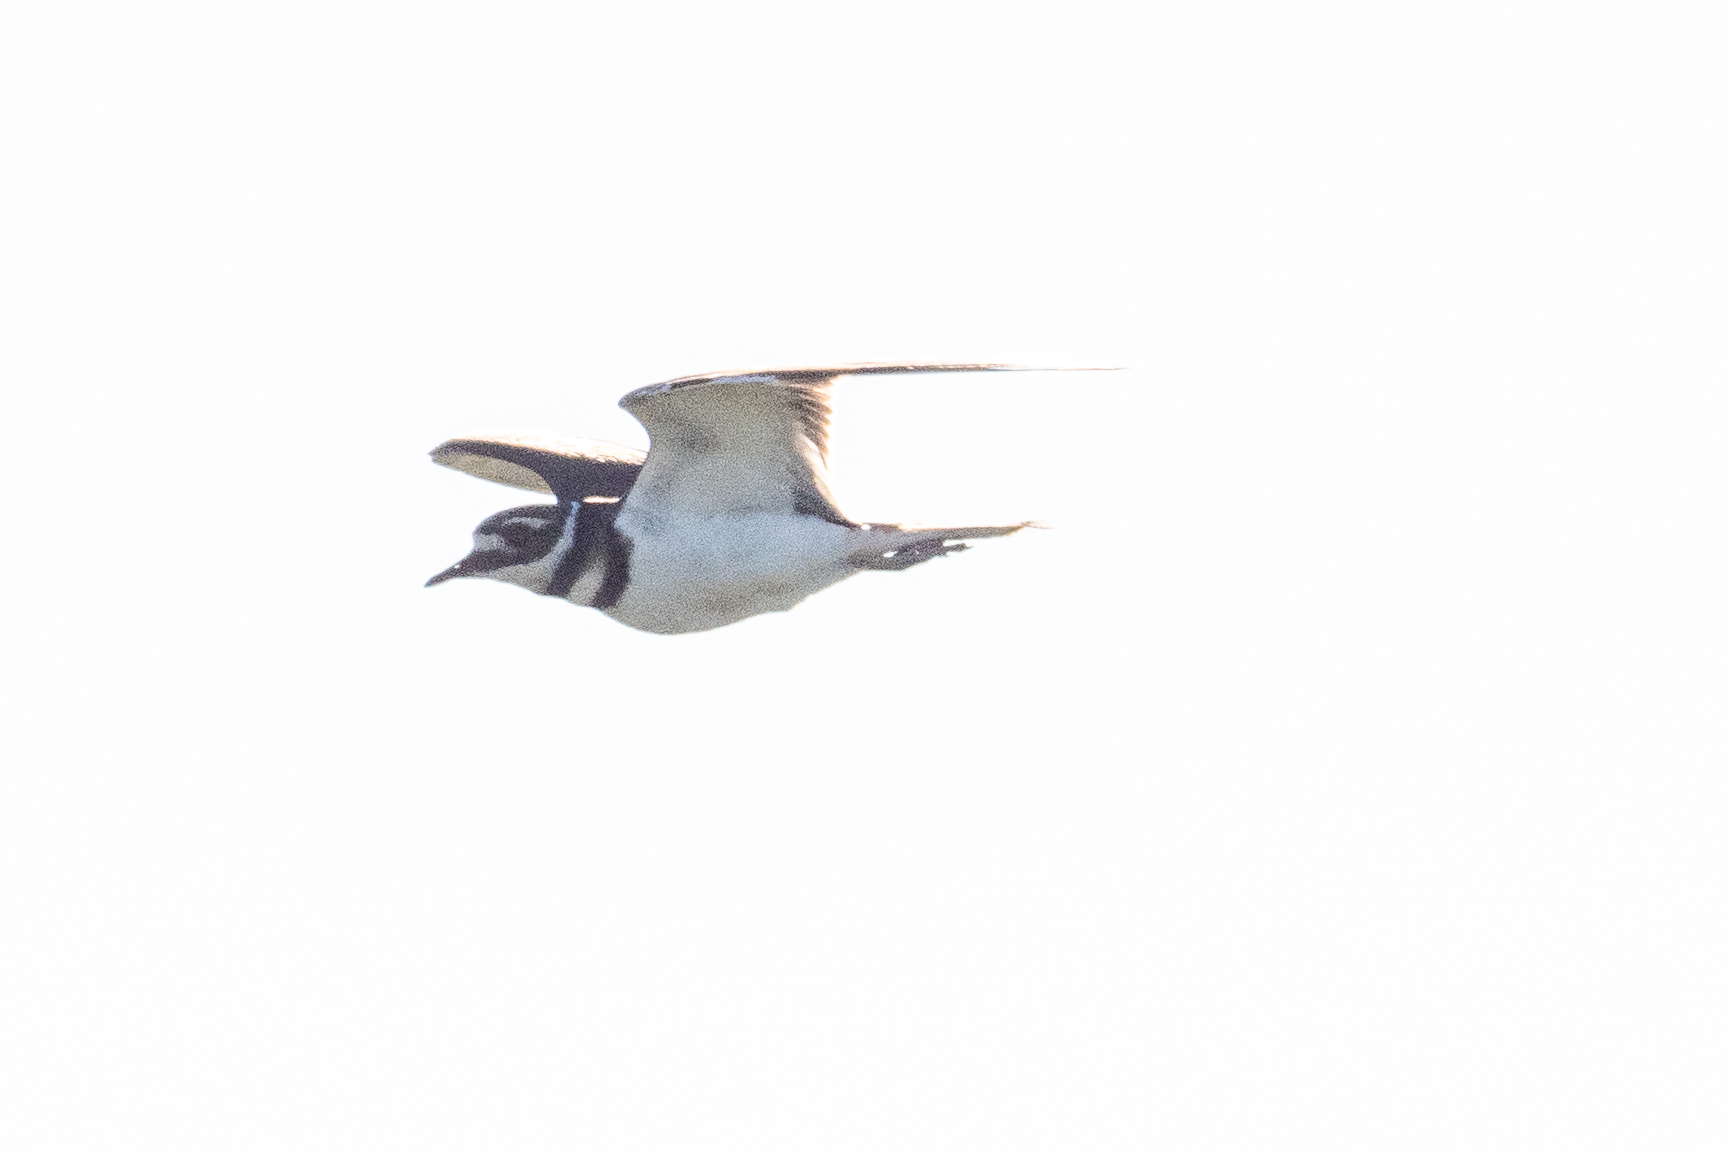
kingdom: Animalia
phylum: Chordata
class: Aves
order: Charadriiformes
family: Charadriidae
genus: Charadrius
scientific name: Charadrius vociferus
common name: Killdeer
